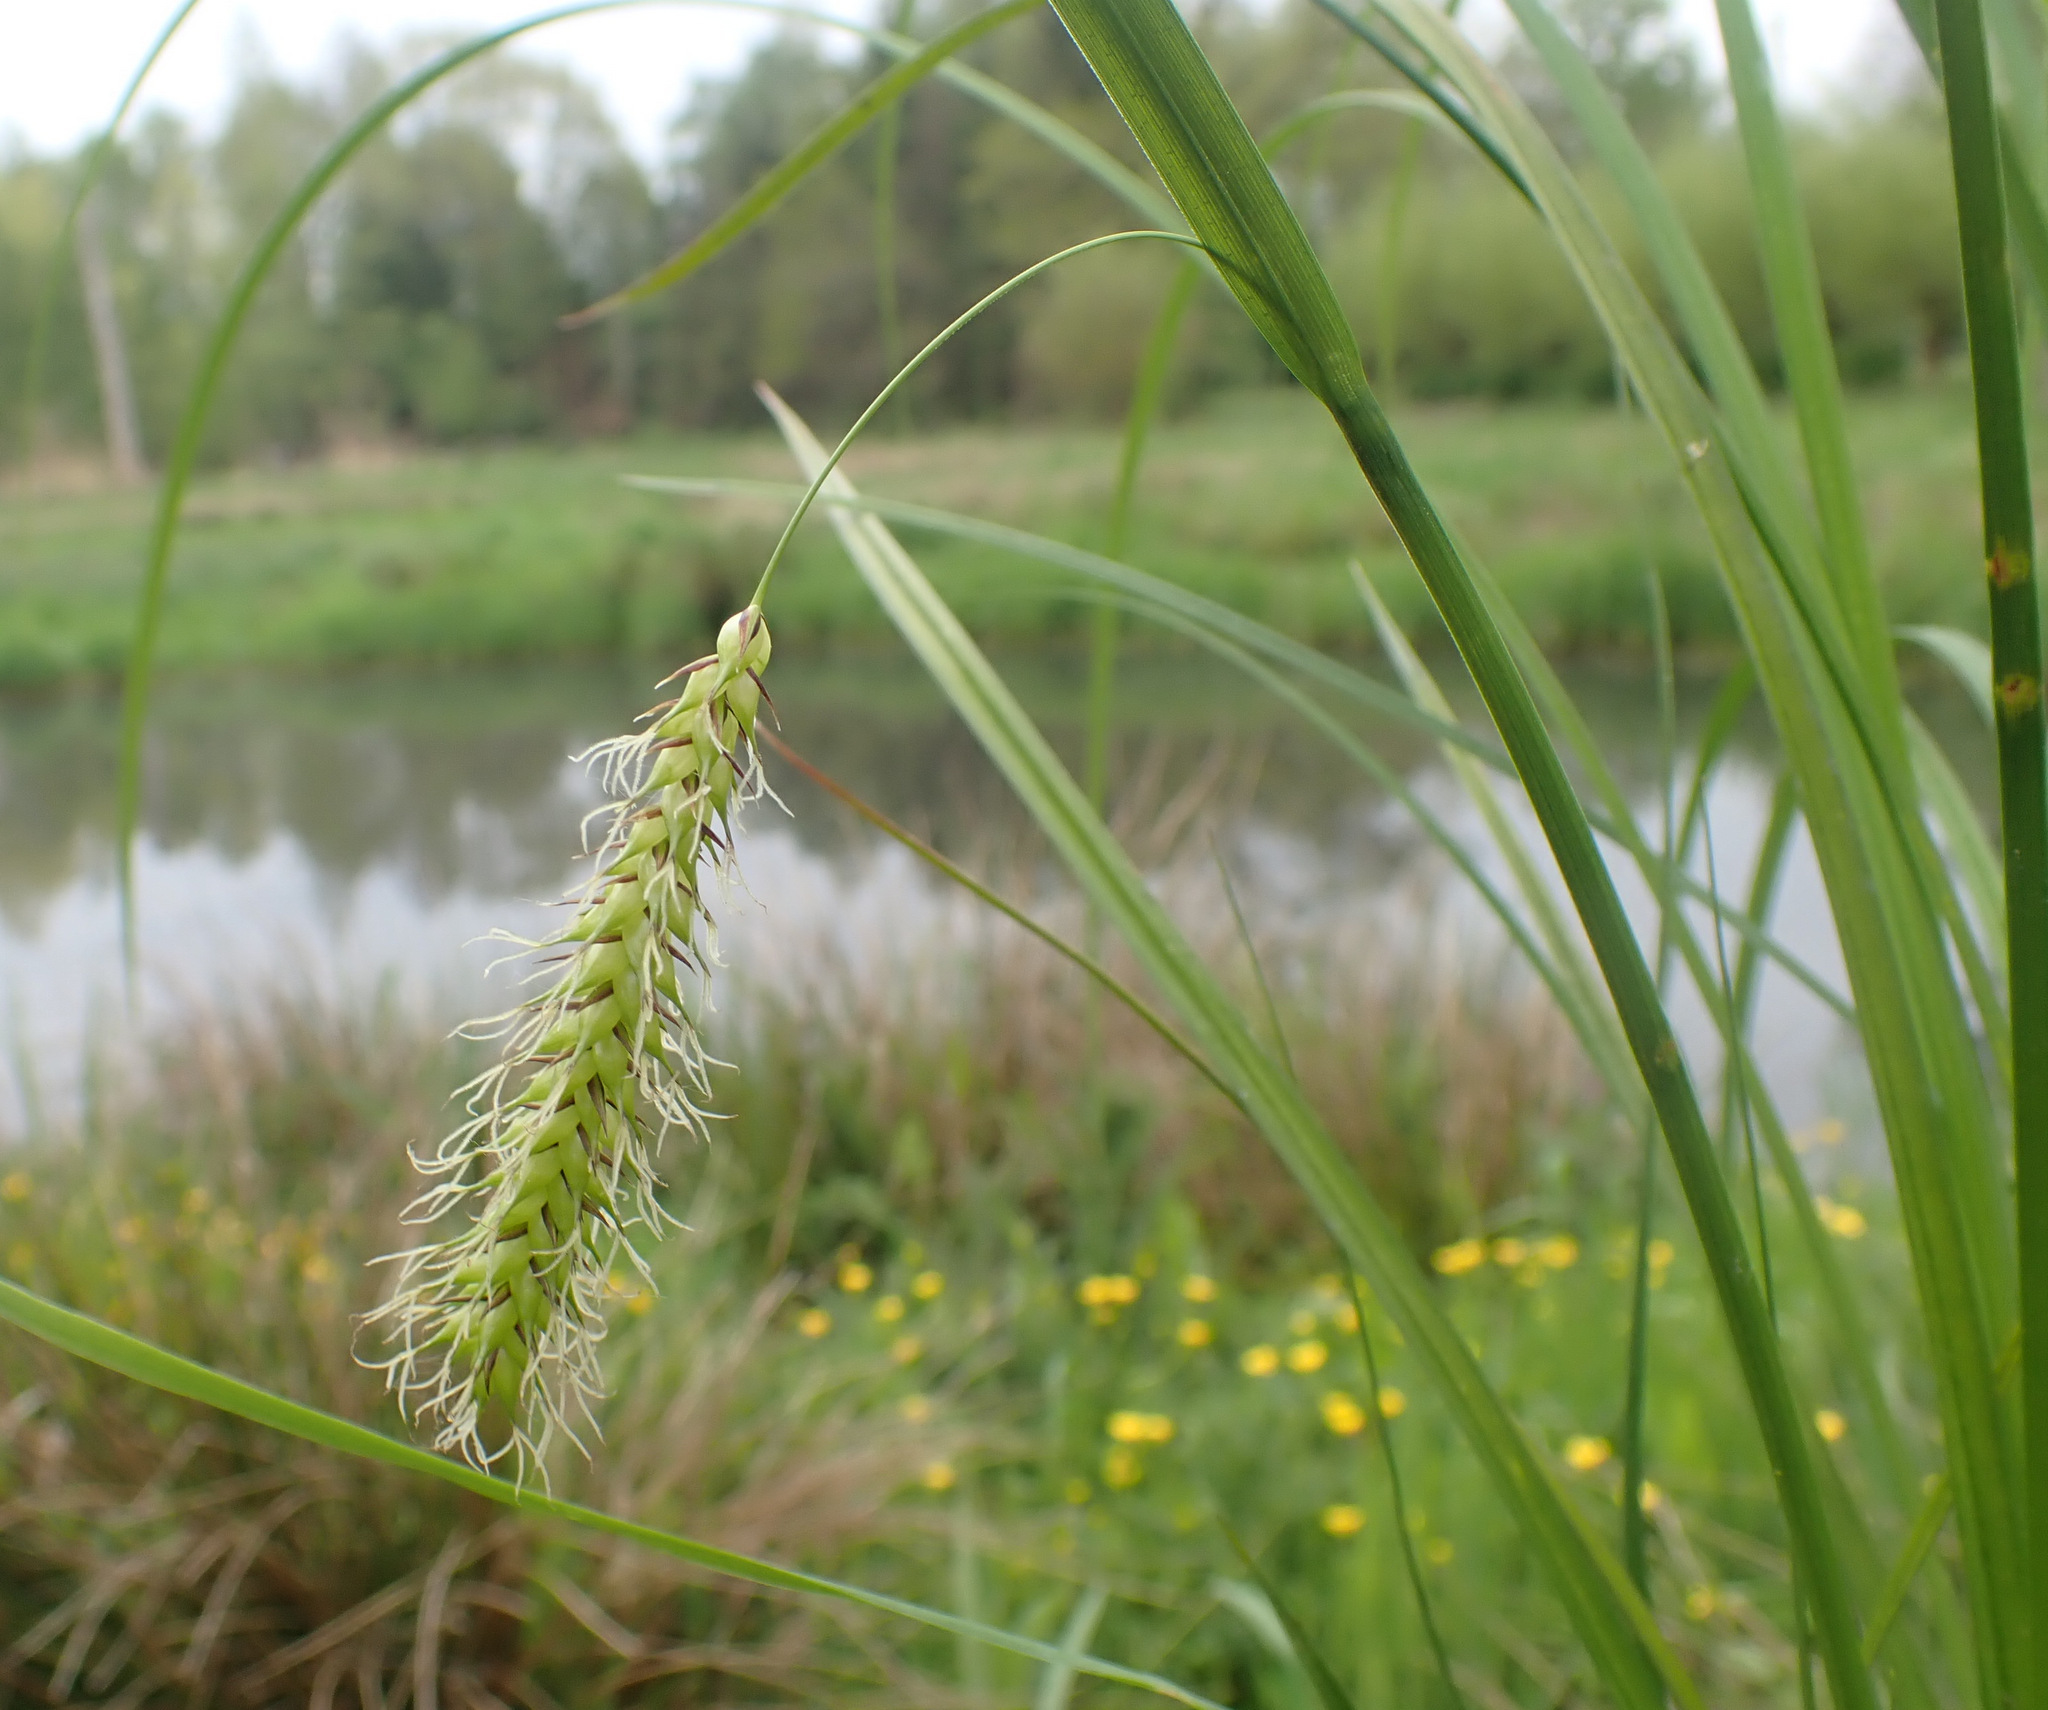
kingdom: Plantae
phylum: Tracheophyta
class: Liliopsida
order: Poales
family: Cyperaceae
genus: Carex
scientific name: Carex vesicaria
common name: Bladder-sedge
